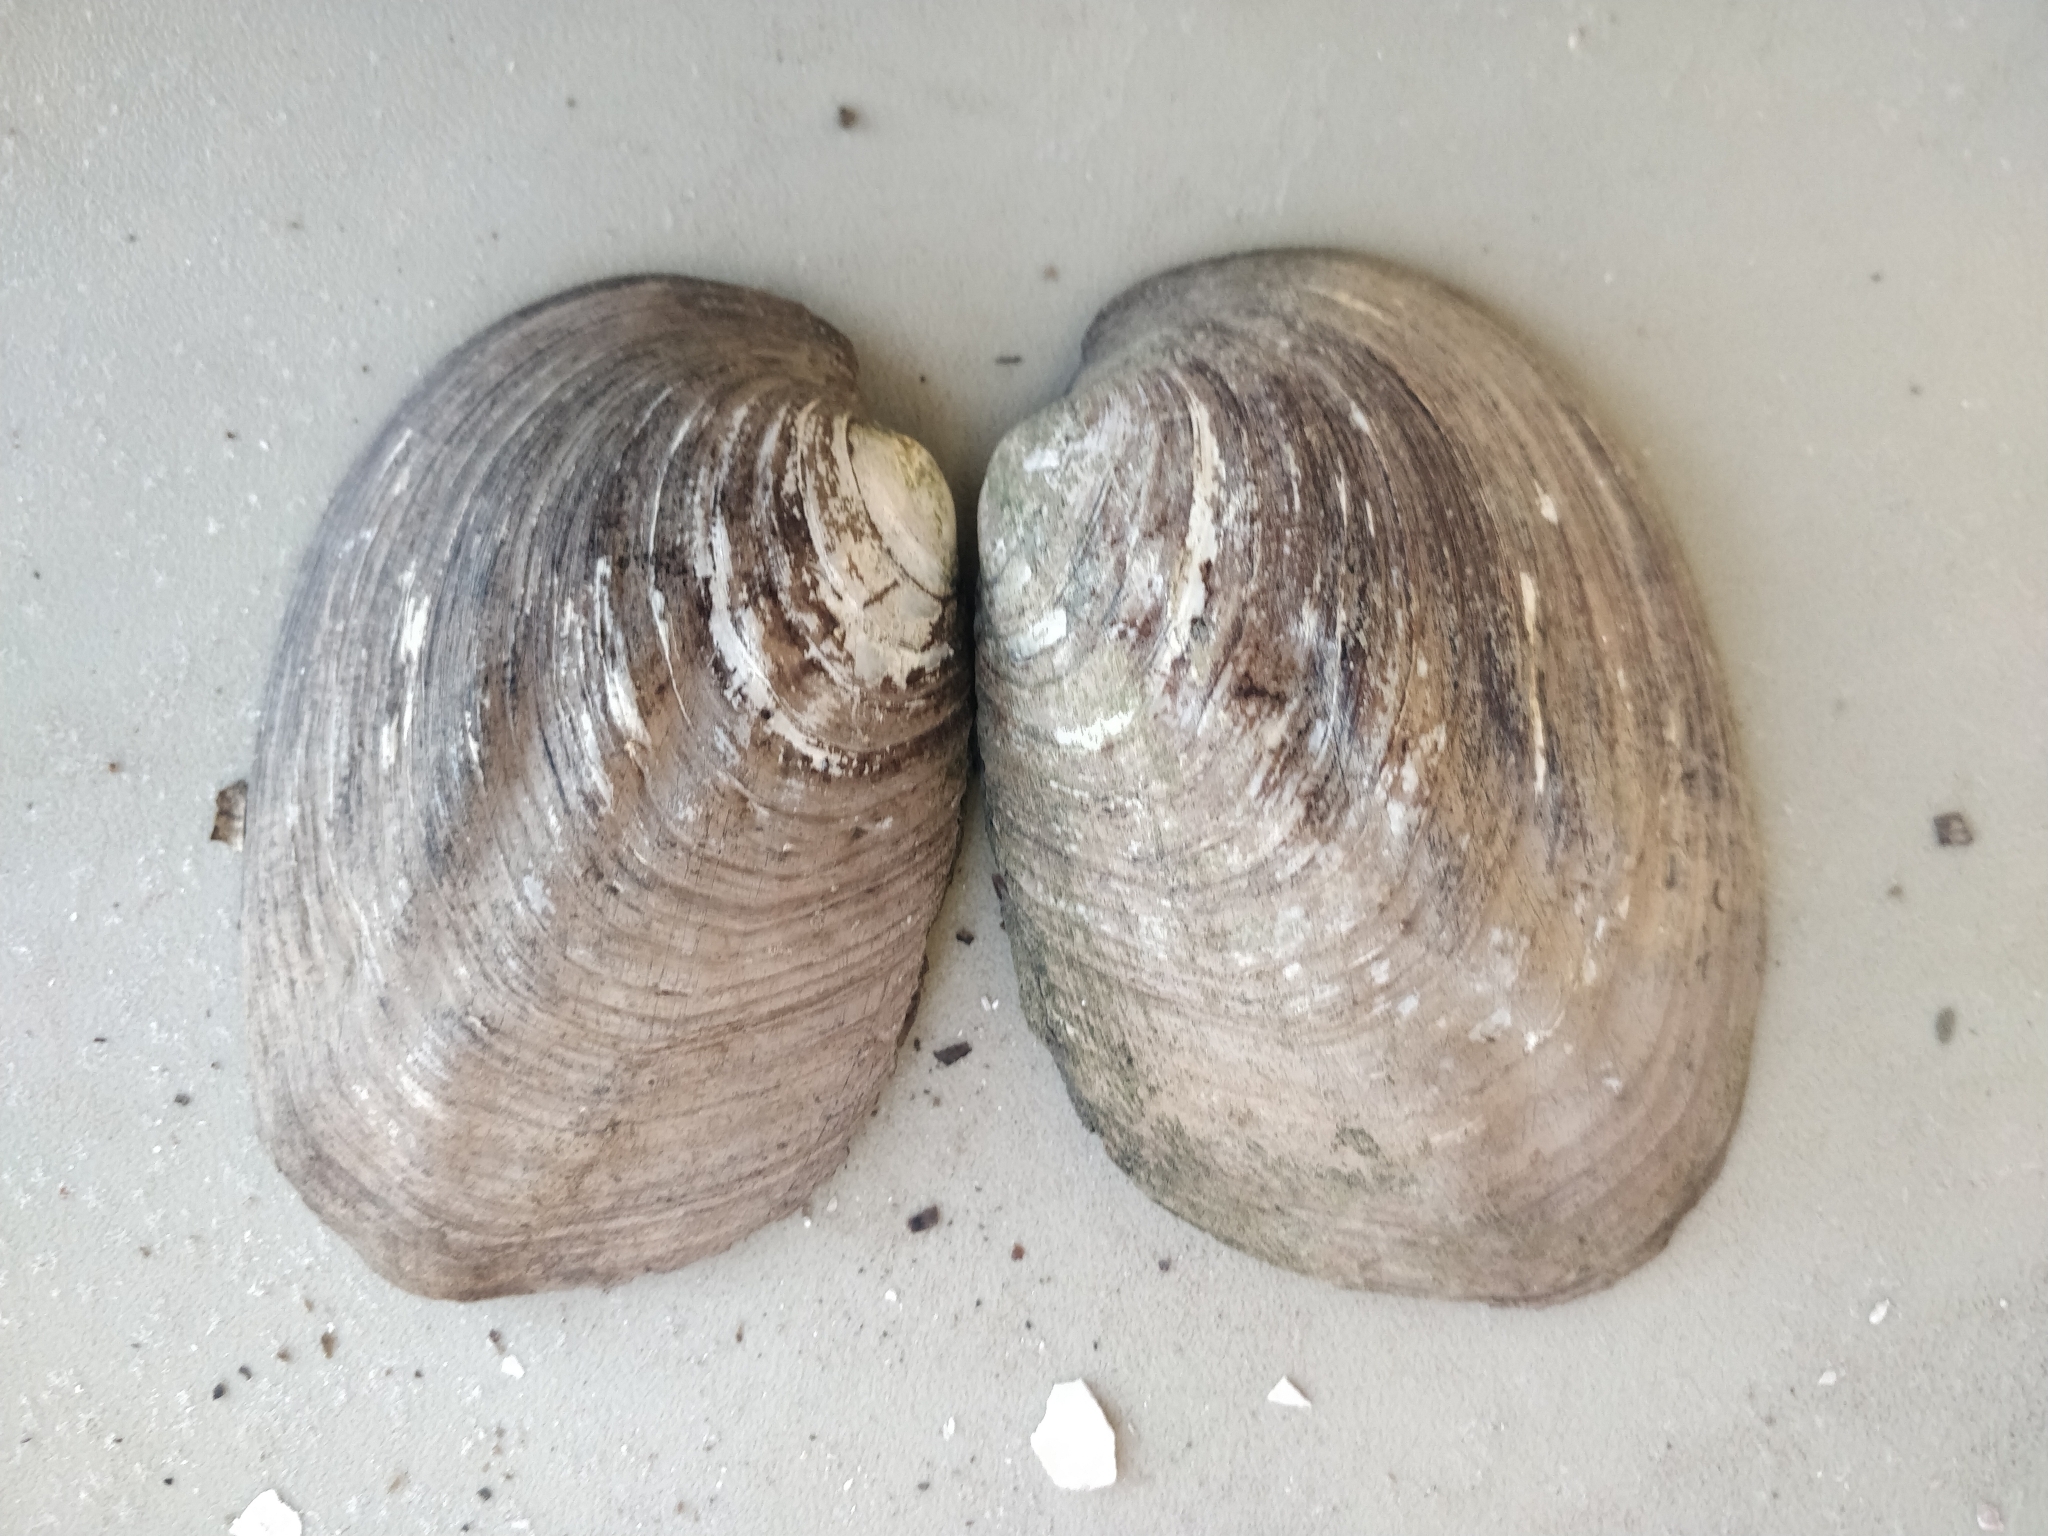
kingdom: Animalia
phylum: Mollusca
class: Bivalvia
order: Unionida
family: Unionidae
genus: Amblema
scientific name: Amblema plicata
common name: Threeridge
